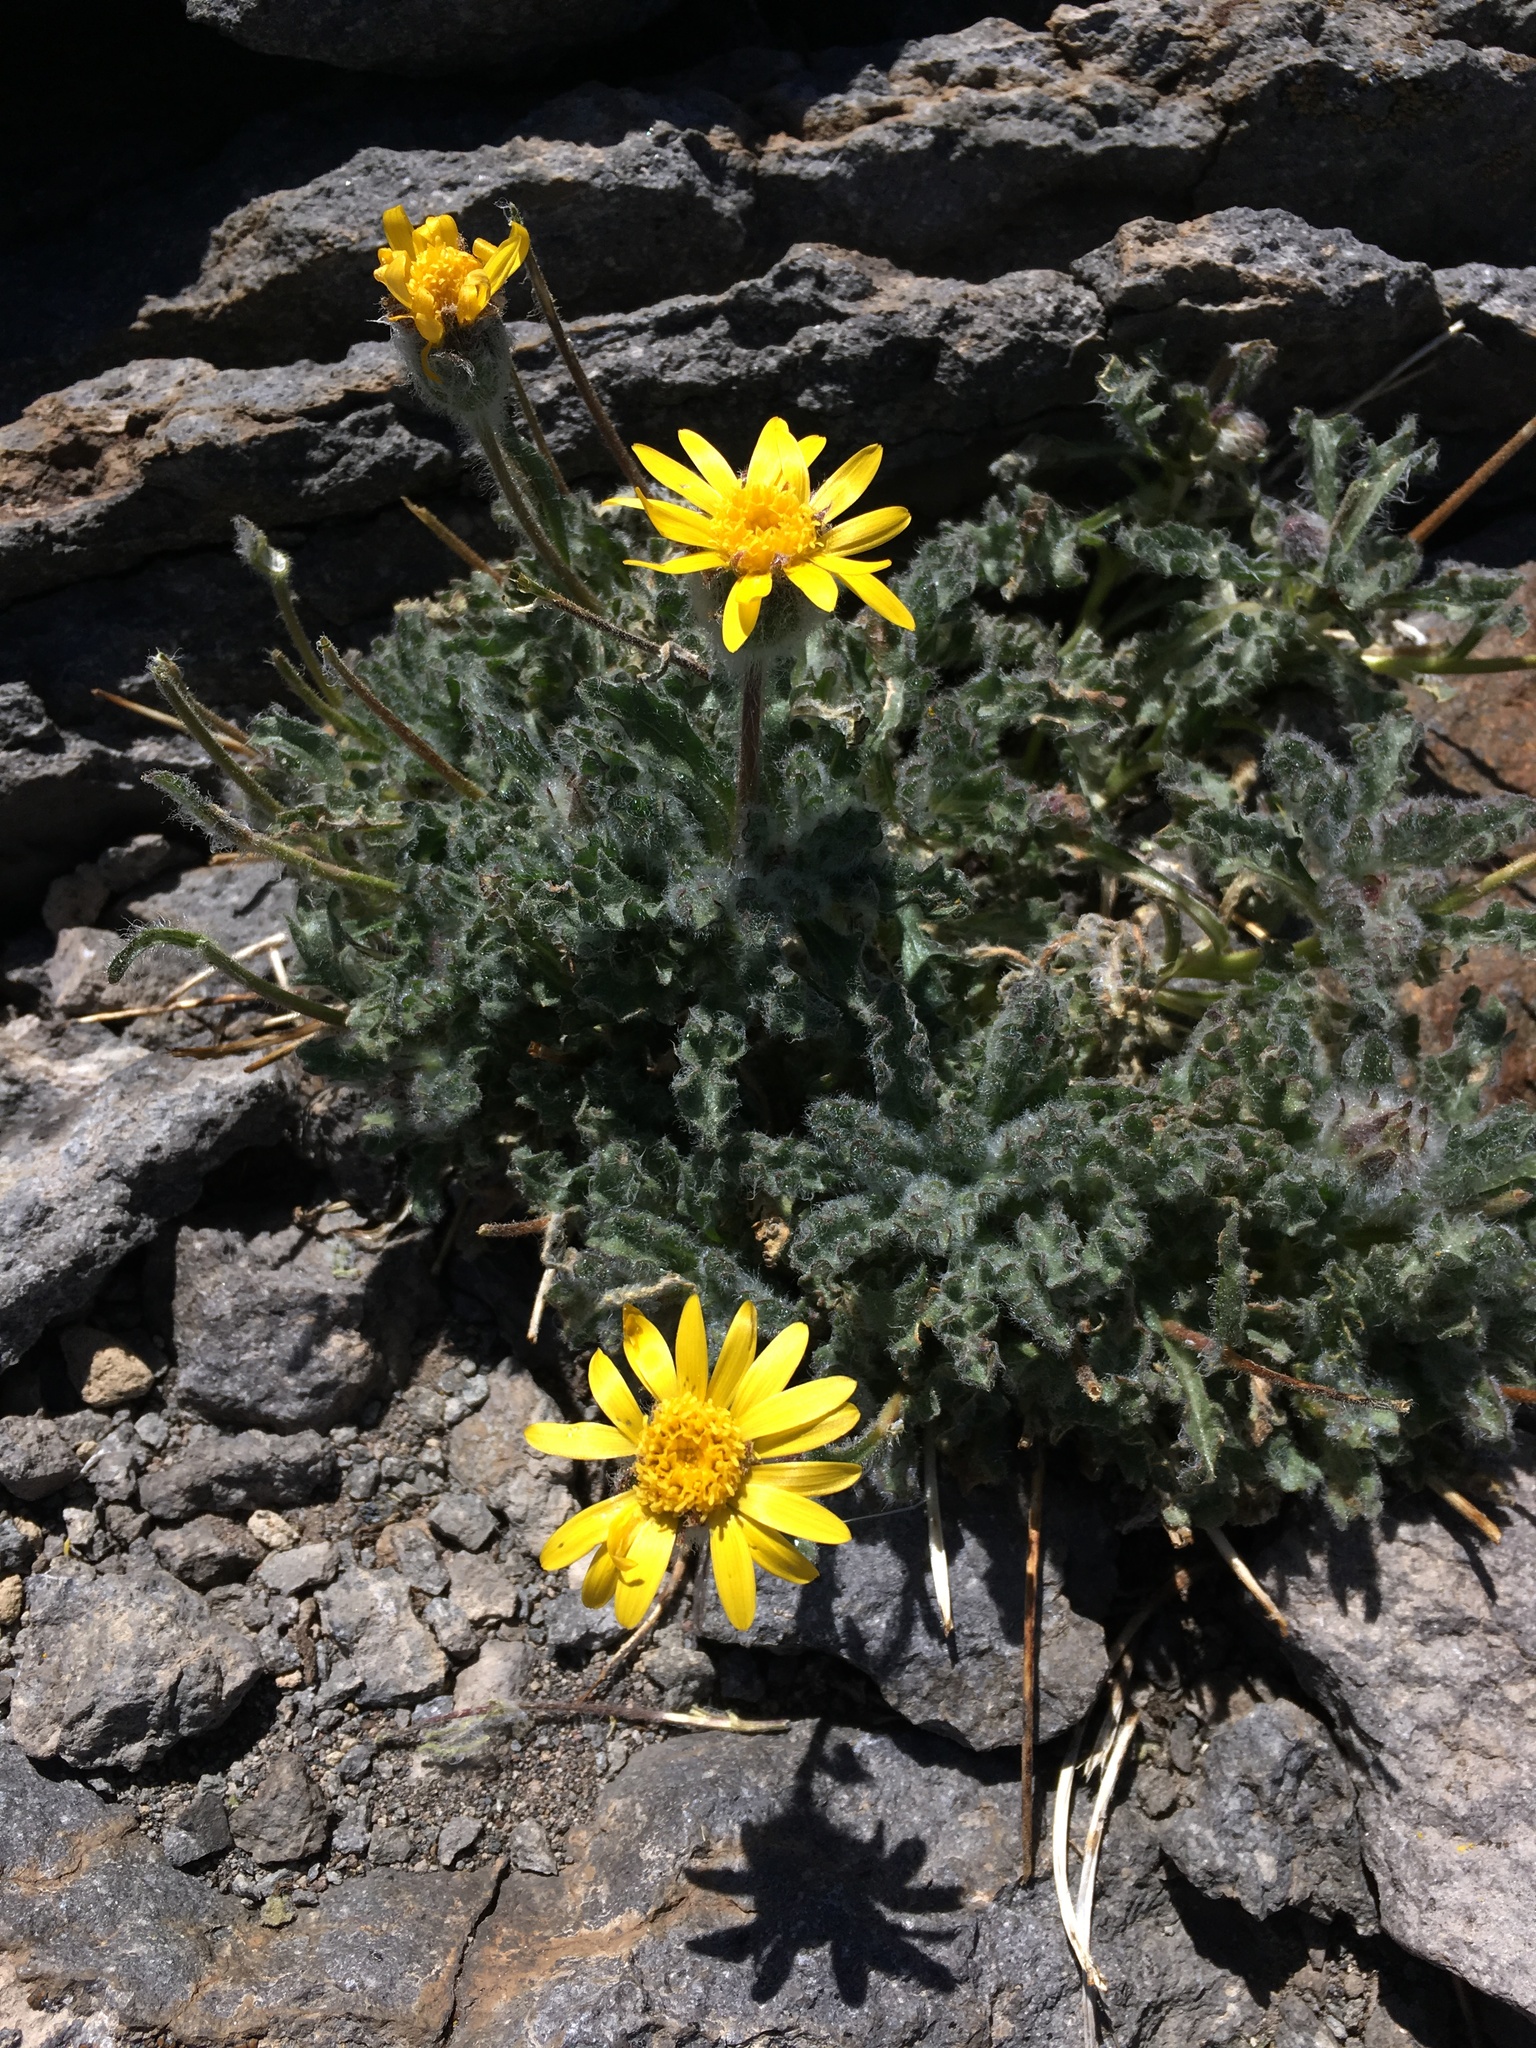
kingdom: Plantae
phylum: Tracheophyta
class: Magnoliopsida
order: Asterales
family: Asteraceae
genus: Hulsea
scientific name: Hulsea nana
